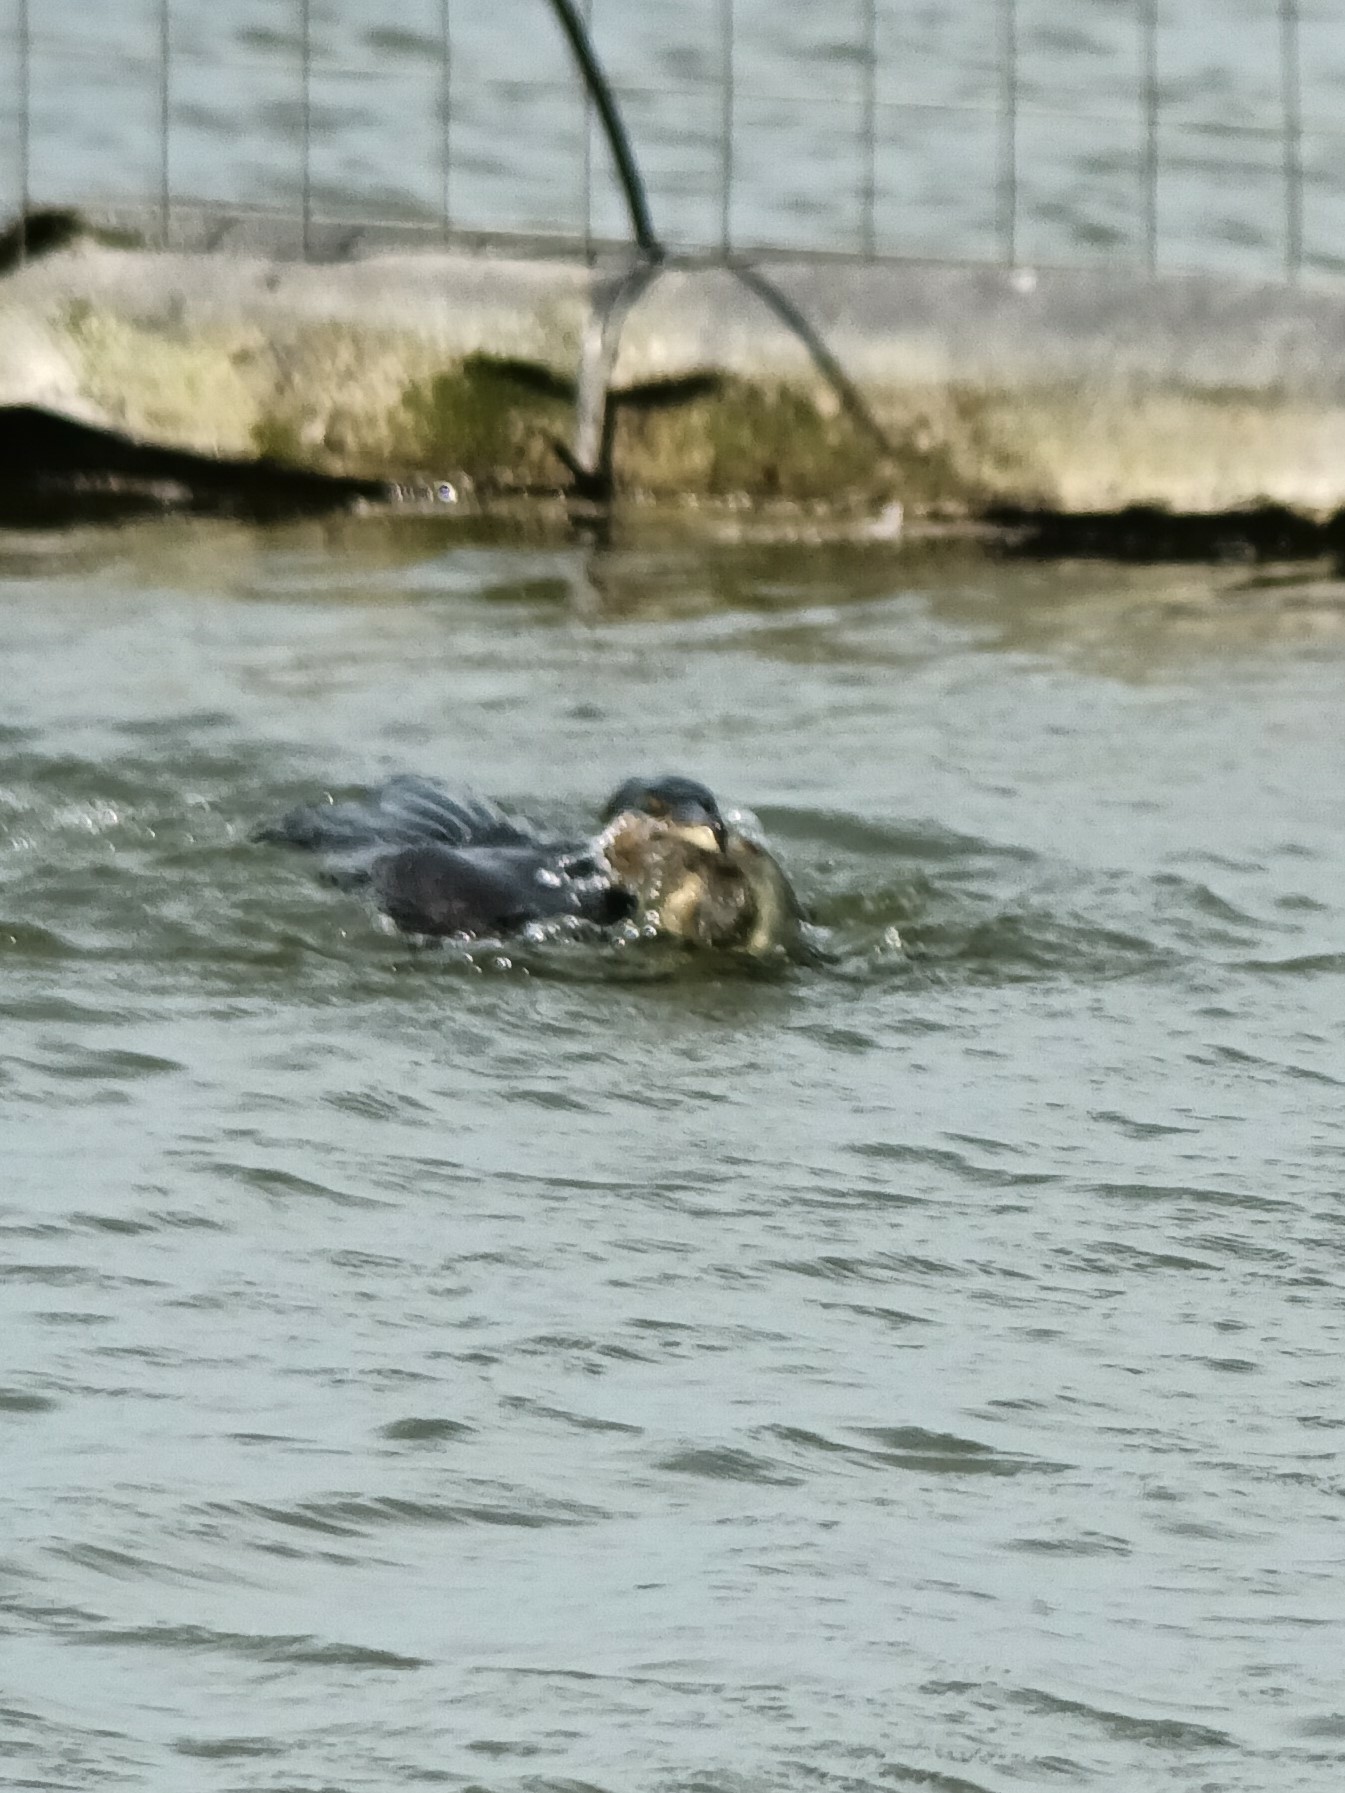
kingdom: Animalia
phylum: Chordata
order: Anguilliformes
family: Anguillidae
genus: Anguilla
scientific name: Anguilla anguilla
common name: European eel
